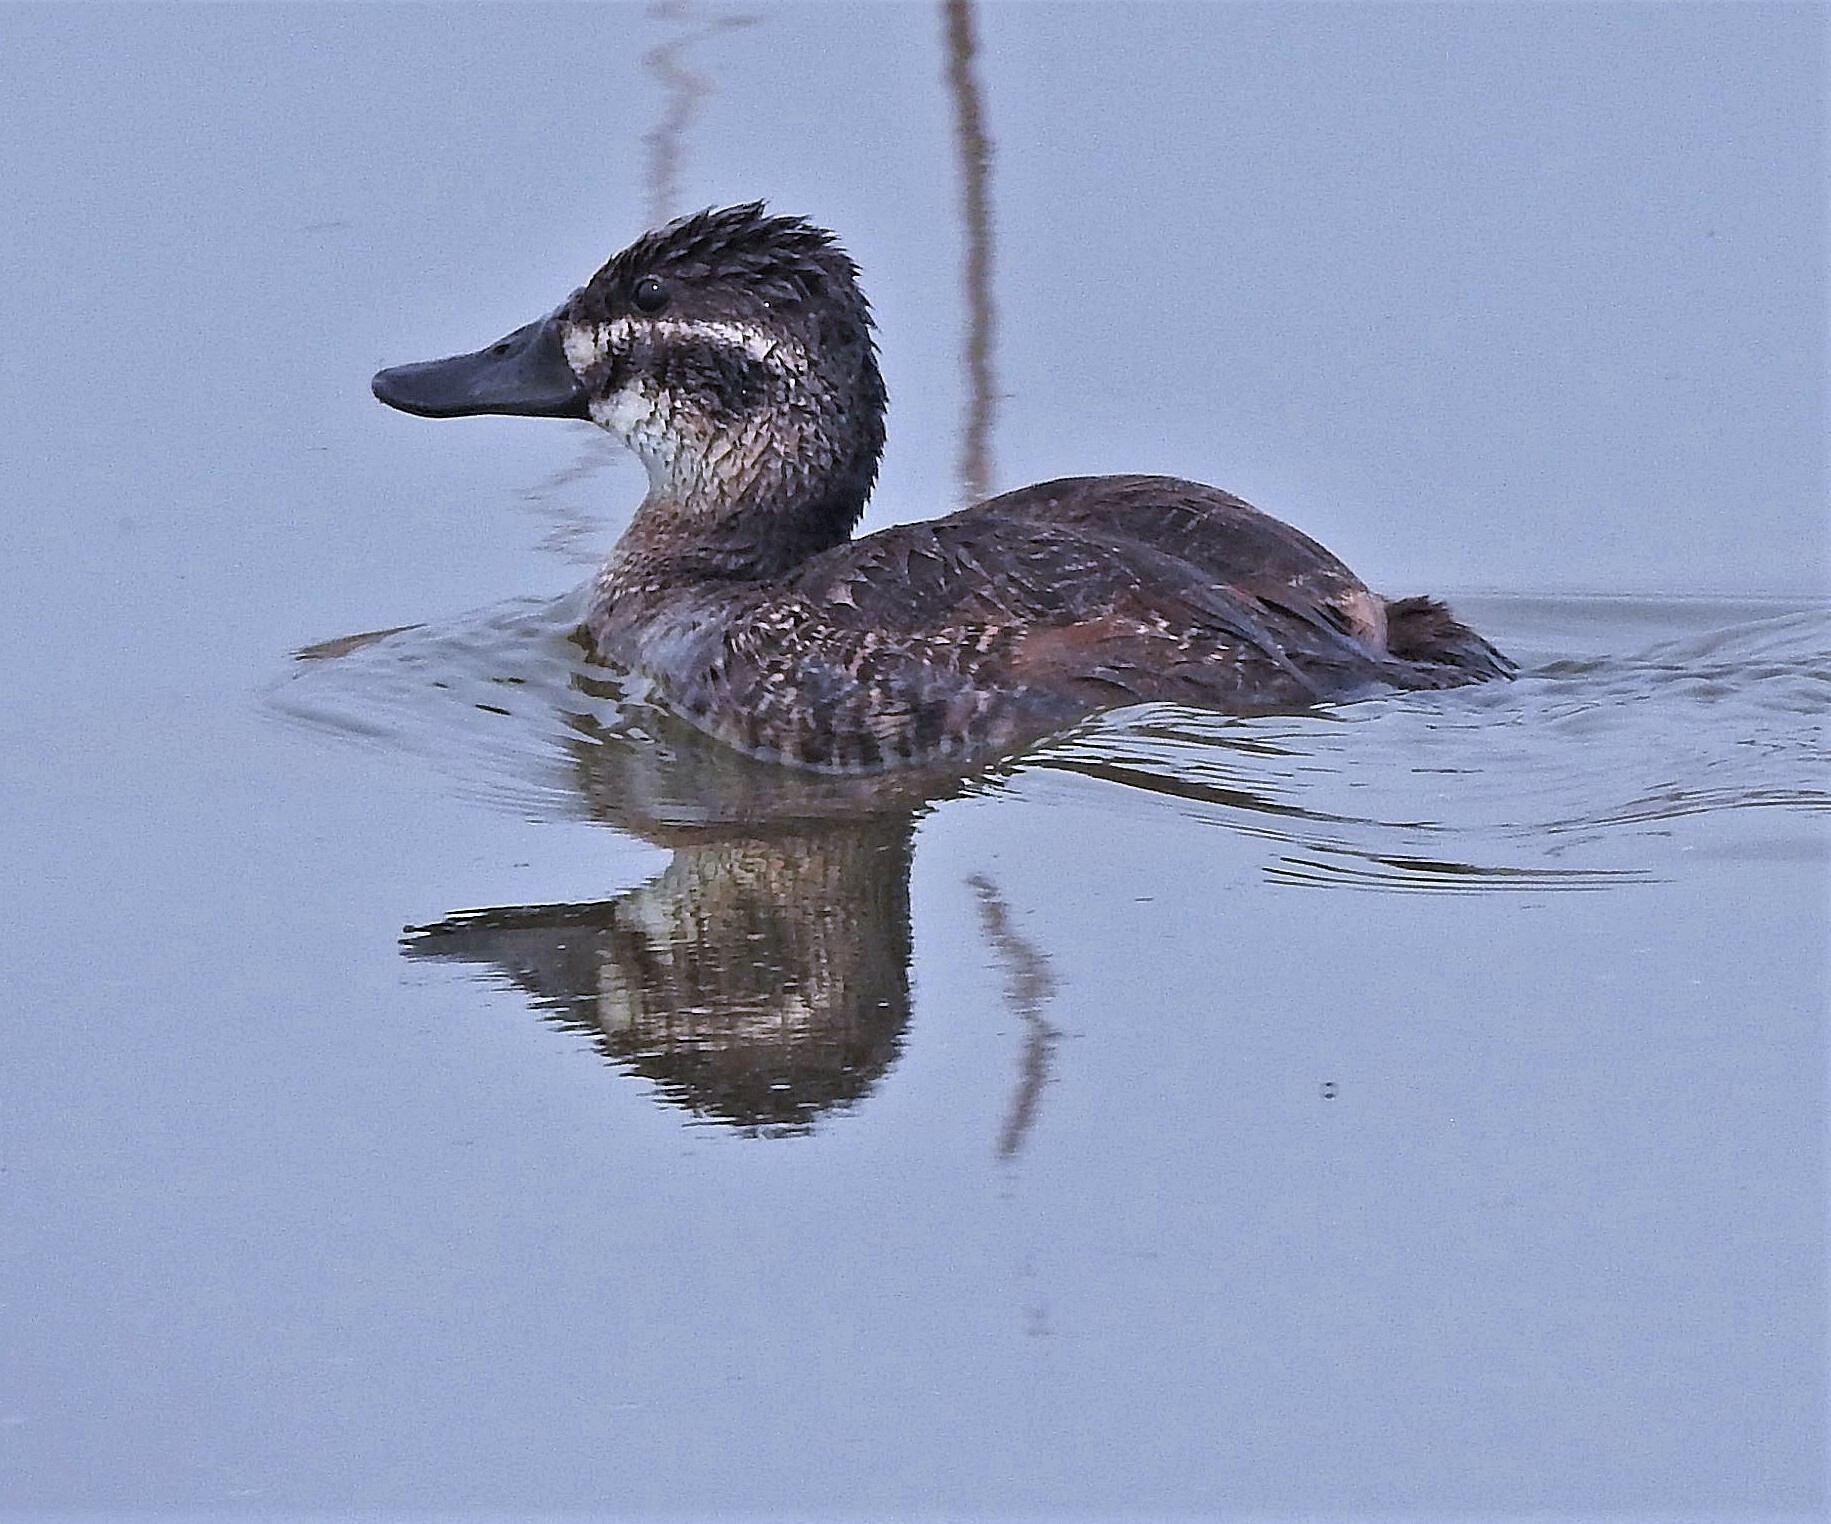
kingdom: Animalia
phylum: Chordata
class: Aves
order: Anseriformes
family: Anatidae
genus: Oxyura
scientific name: Oxyura vittata
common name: Lake duck
